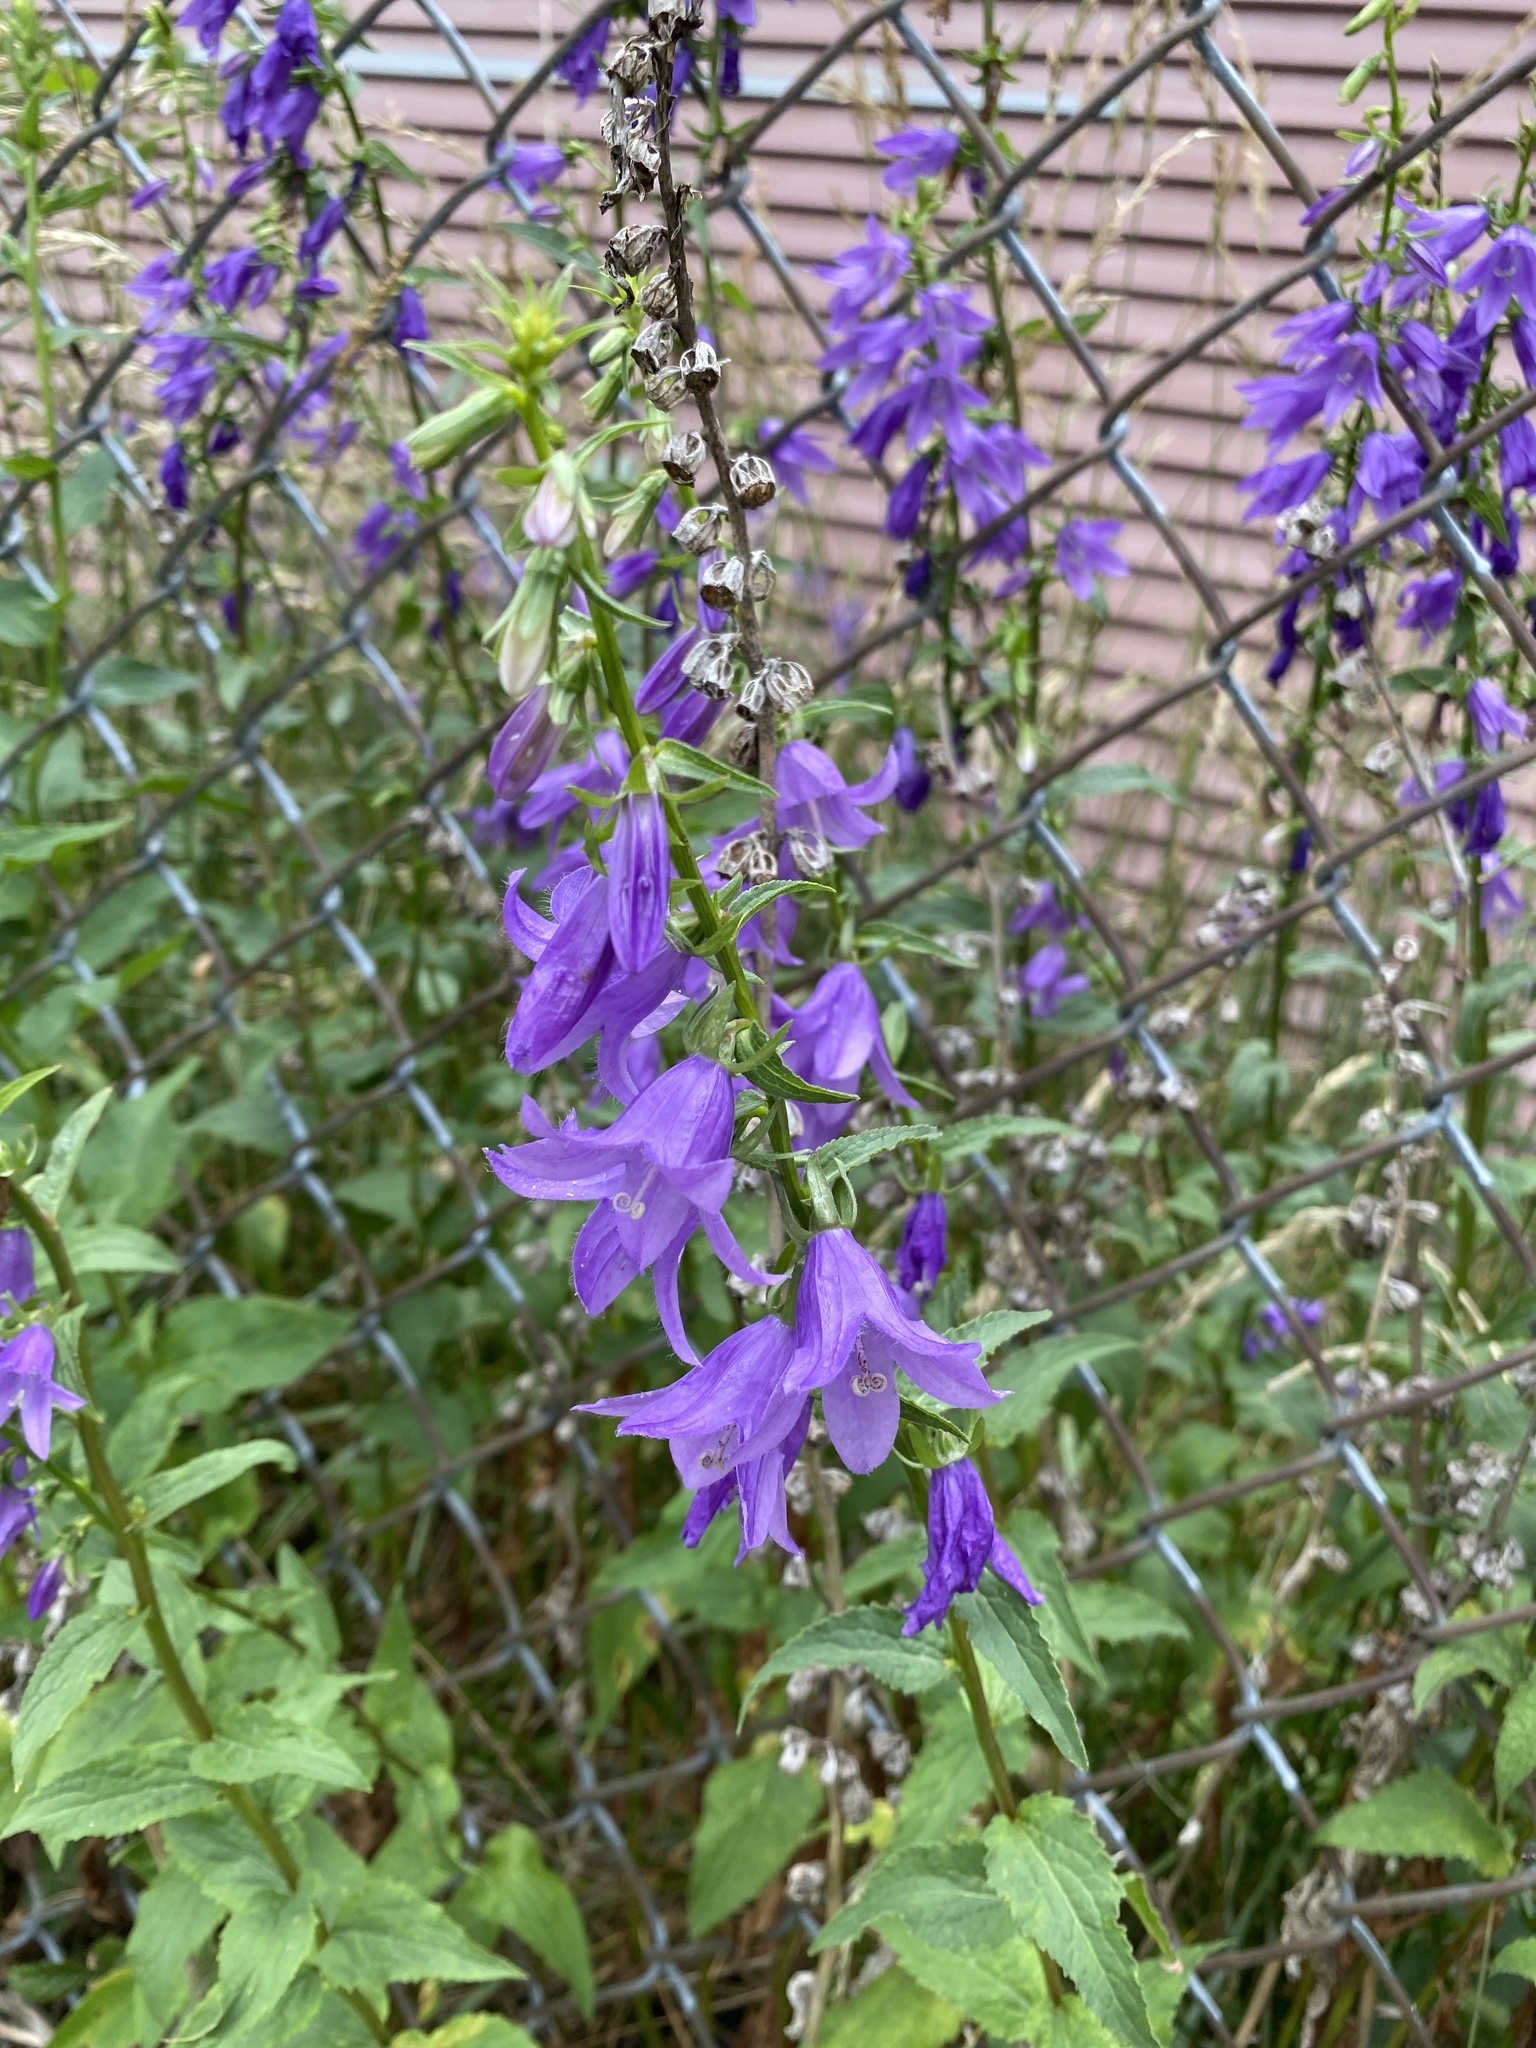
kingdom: Plantae
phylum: Tracheophyta
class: Magnoliopsida
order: Asterales
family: Campanulaceae
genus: Campanula
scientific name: Campanula rapunculoides
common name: Creeping bellflower
